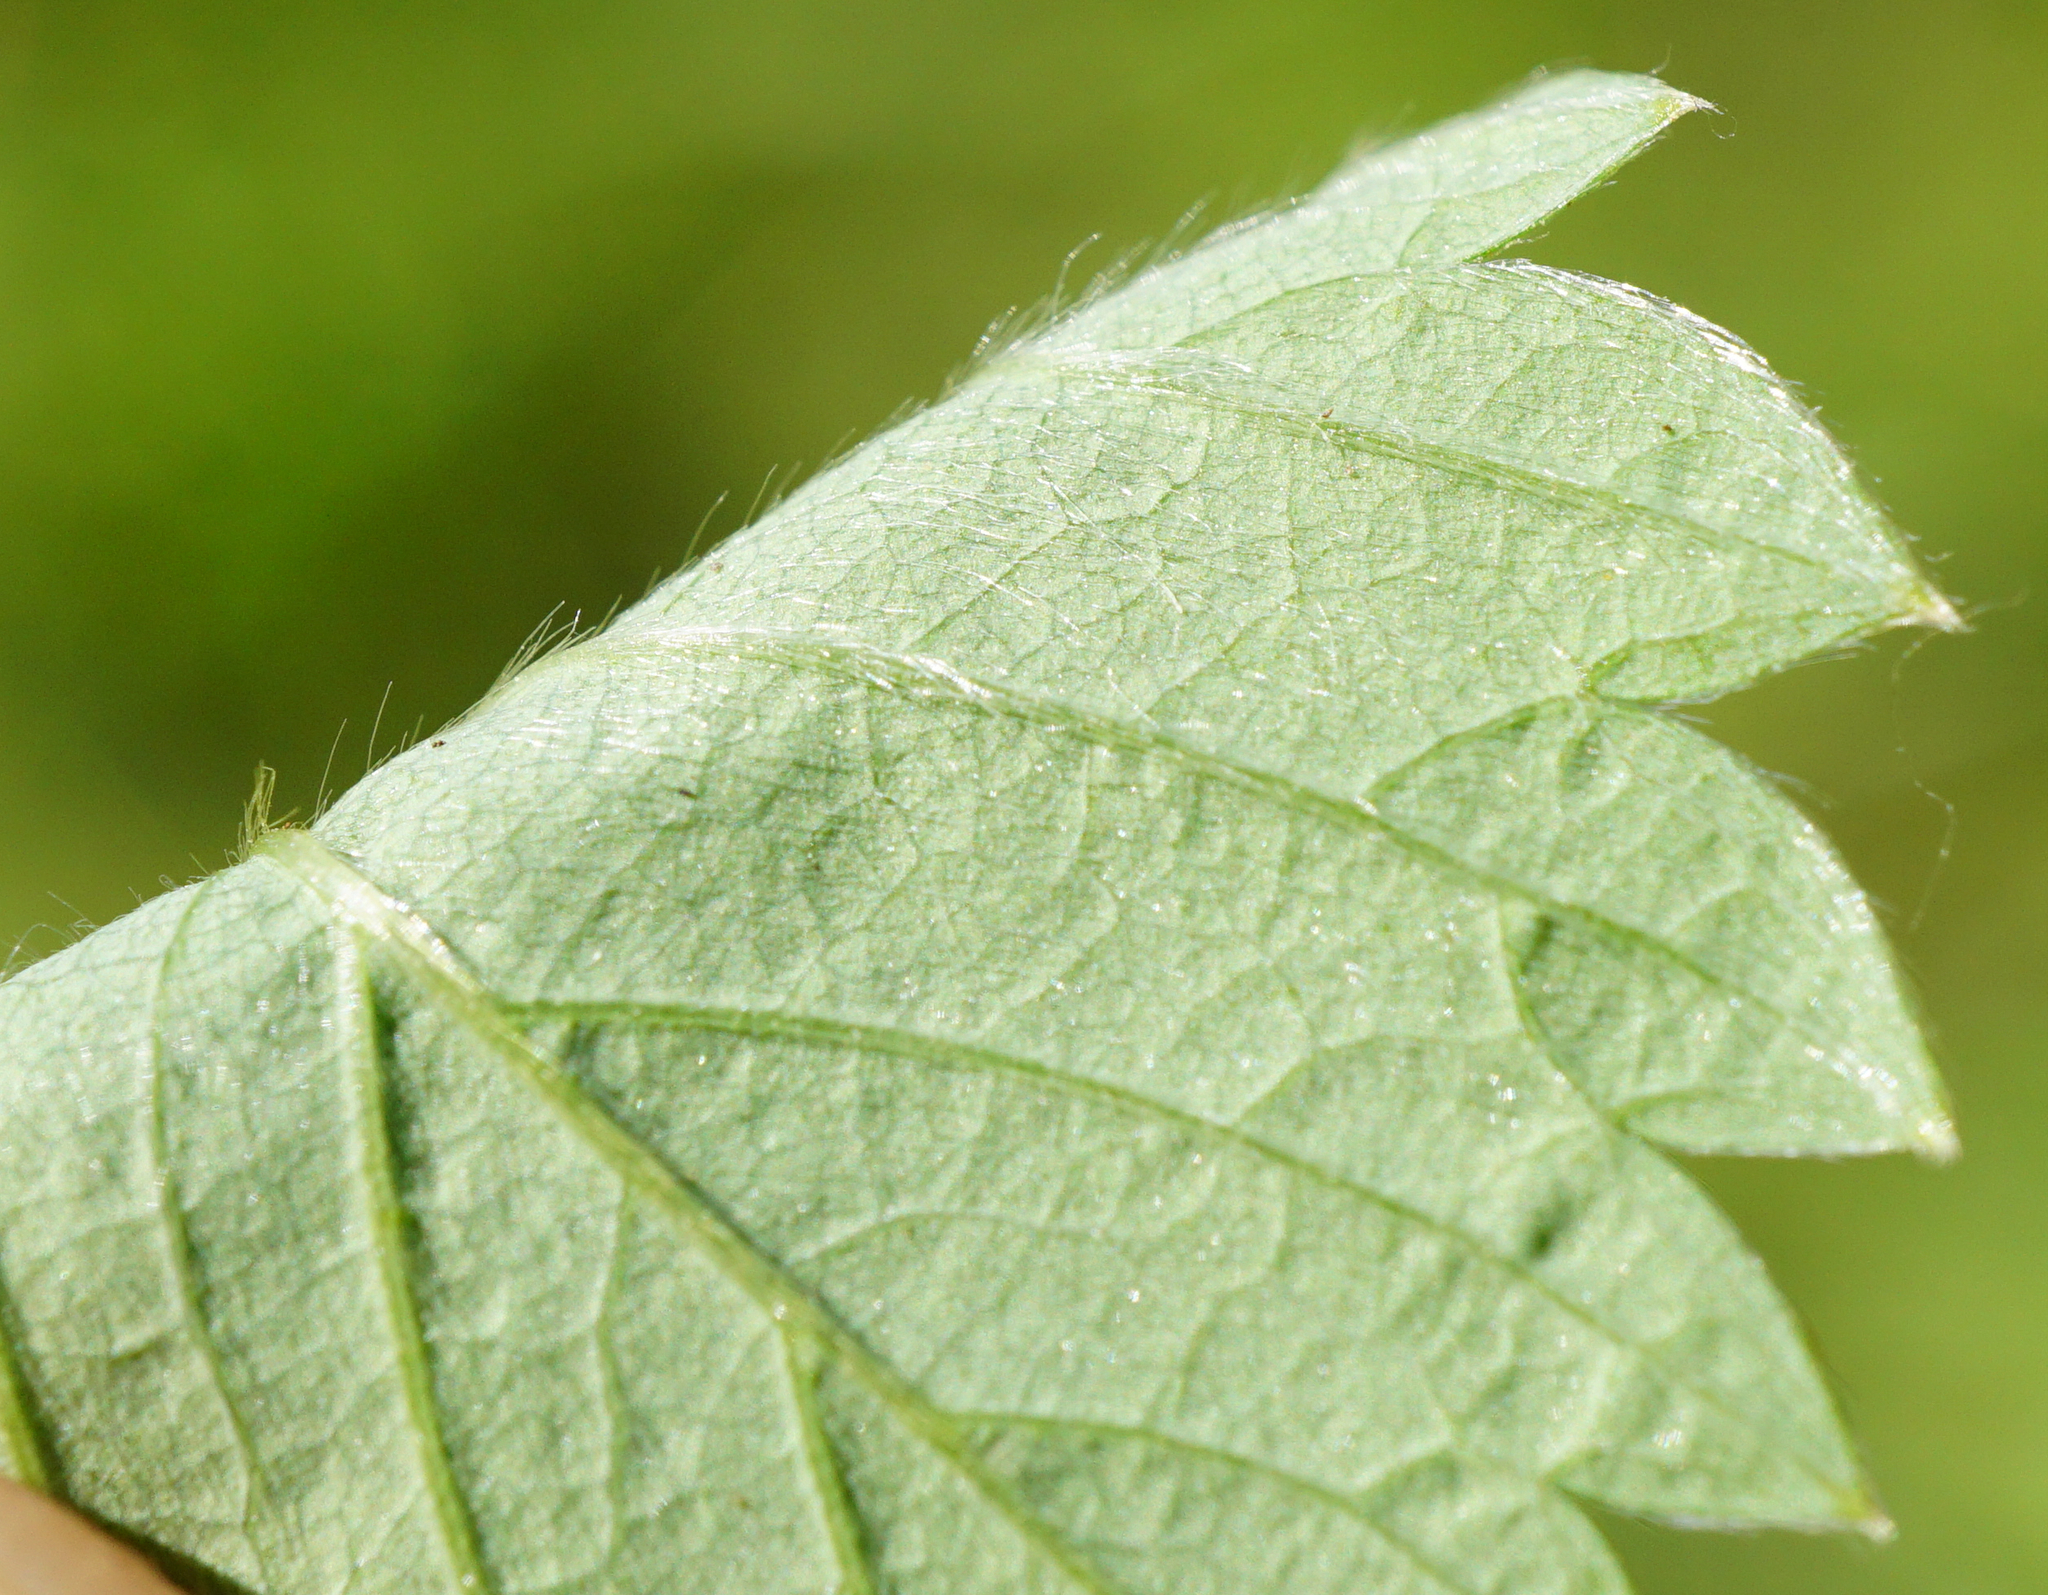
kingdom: Plantae
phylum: Tracheophyta
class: Magnoliopsida
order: Rosales
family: Rosaceae
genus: Fragaria
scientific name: Fragaria viridis
